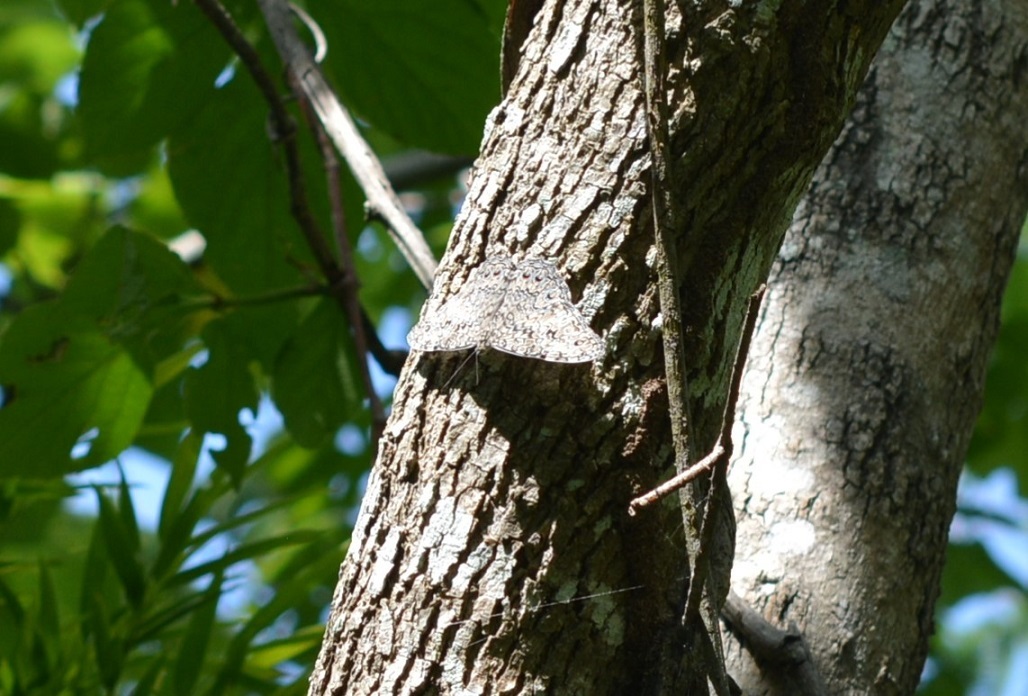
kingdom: Animalia
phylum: Arthropoda
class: Insecta
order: Lepidoptera
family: Nymphalidae
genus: Hamadryas
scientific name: Hamadryas glauconome
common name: Glaucous cracker
